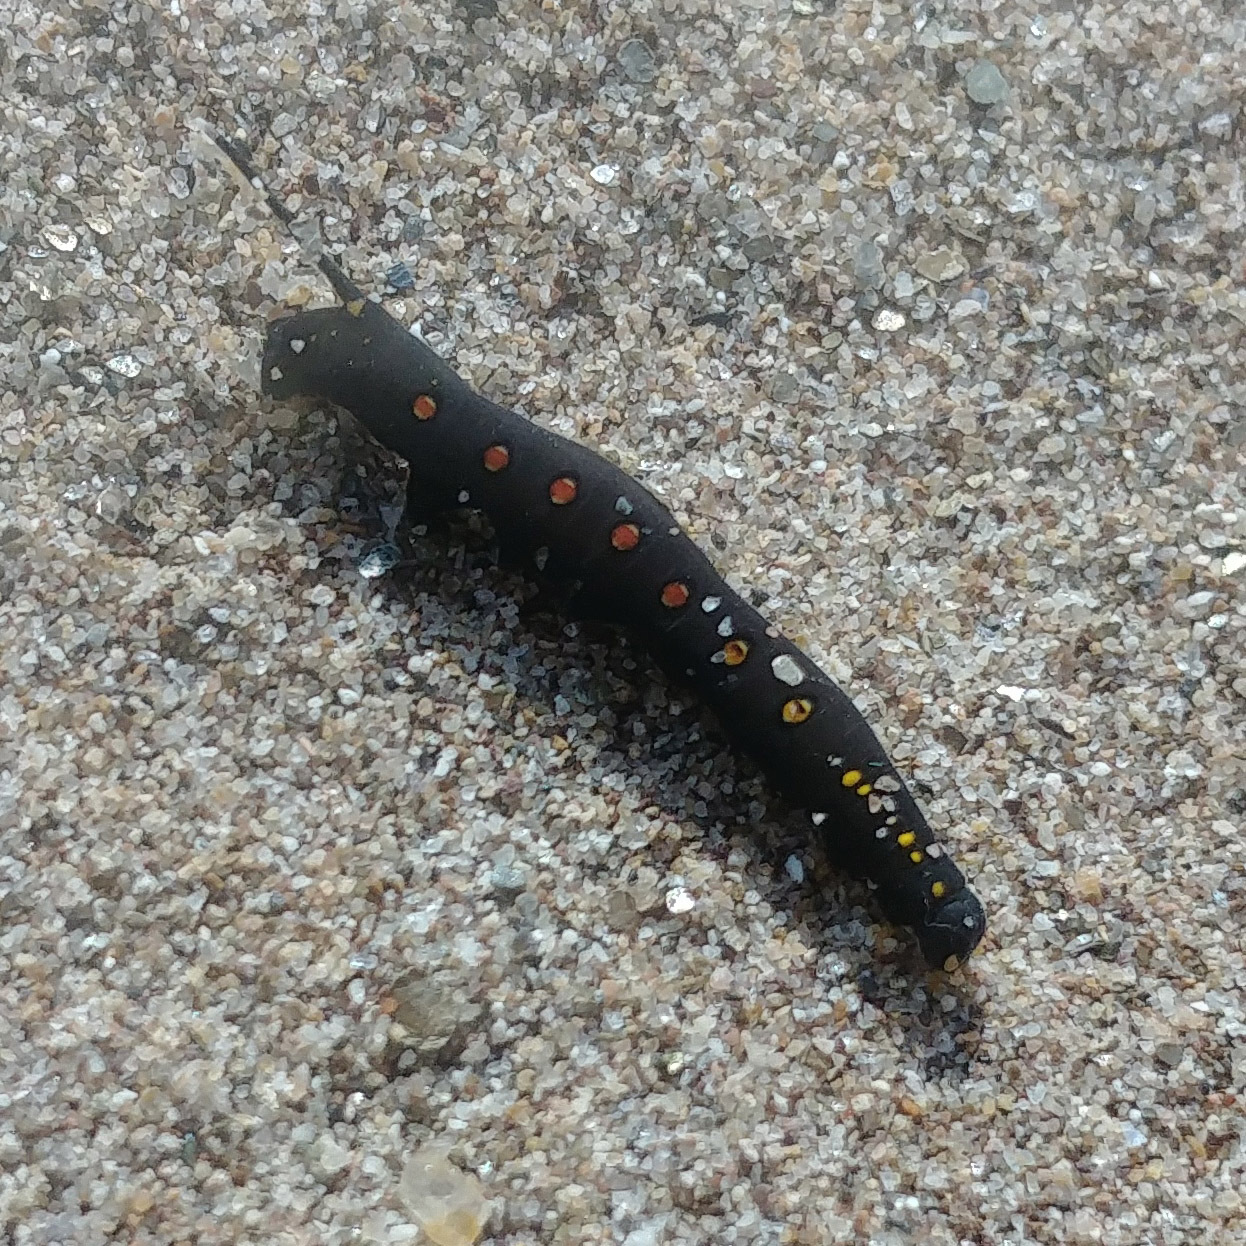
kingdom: Animalia
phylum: Arthropoda
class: Insecta
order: Lepidoptera
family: Sphingidae
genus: Theretra
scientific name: Theretra oldenlandiae
